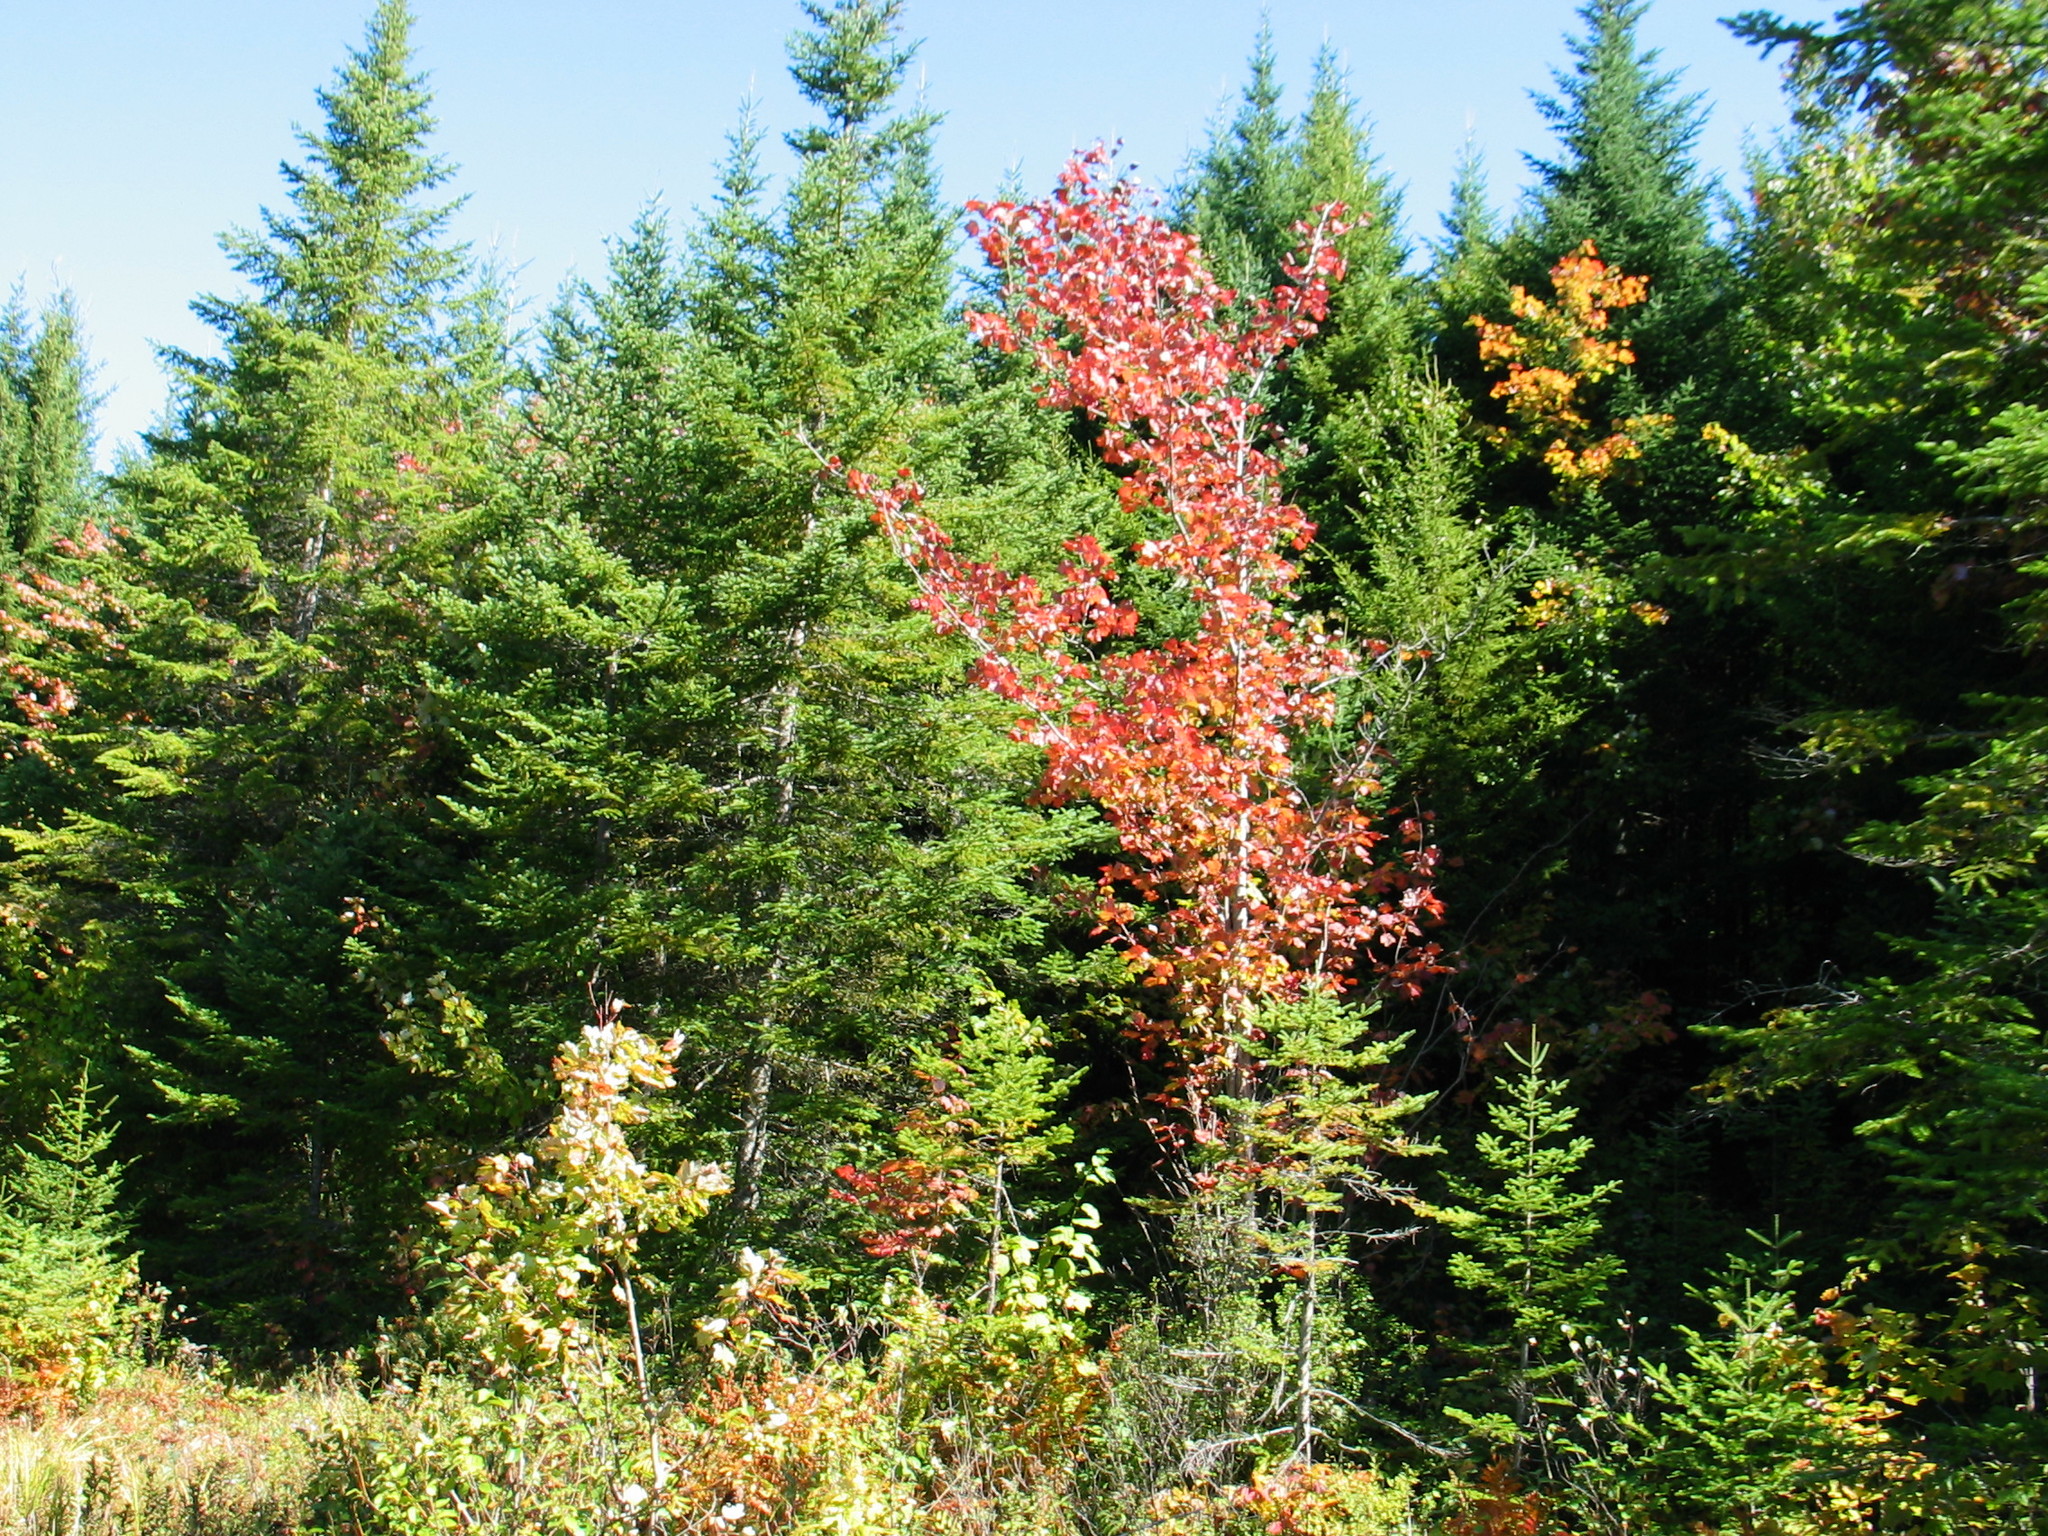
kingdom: Plantae
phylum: Tracheophyta
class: Magnoliopsida
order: Sapindales
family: Sapindaceae
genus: Acer
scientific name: Acer rubrum
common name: Red maple
